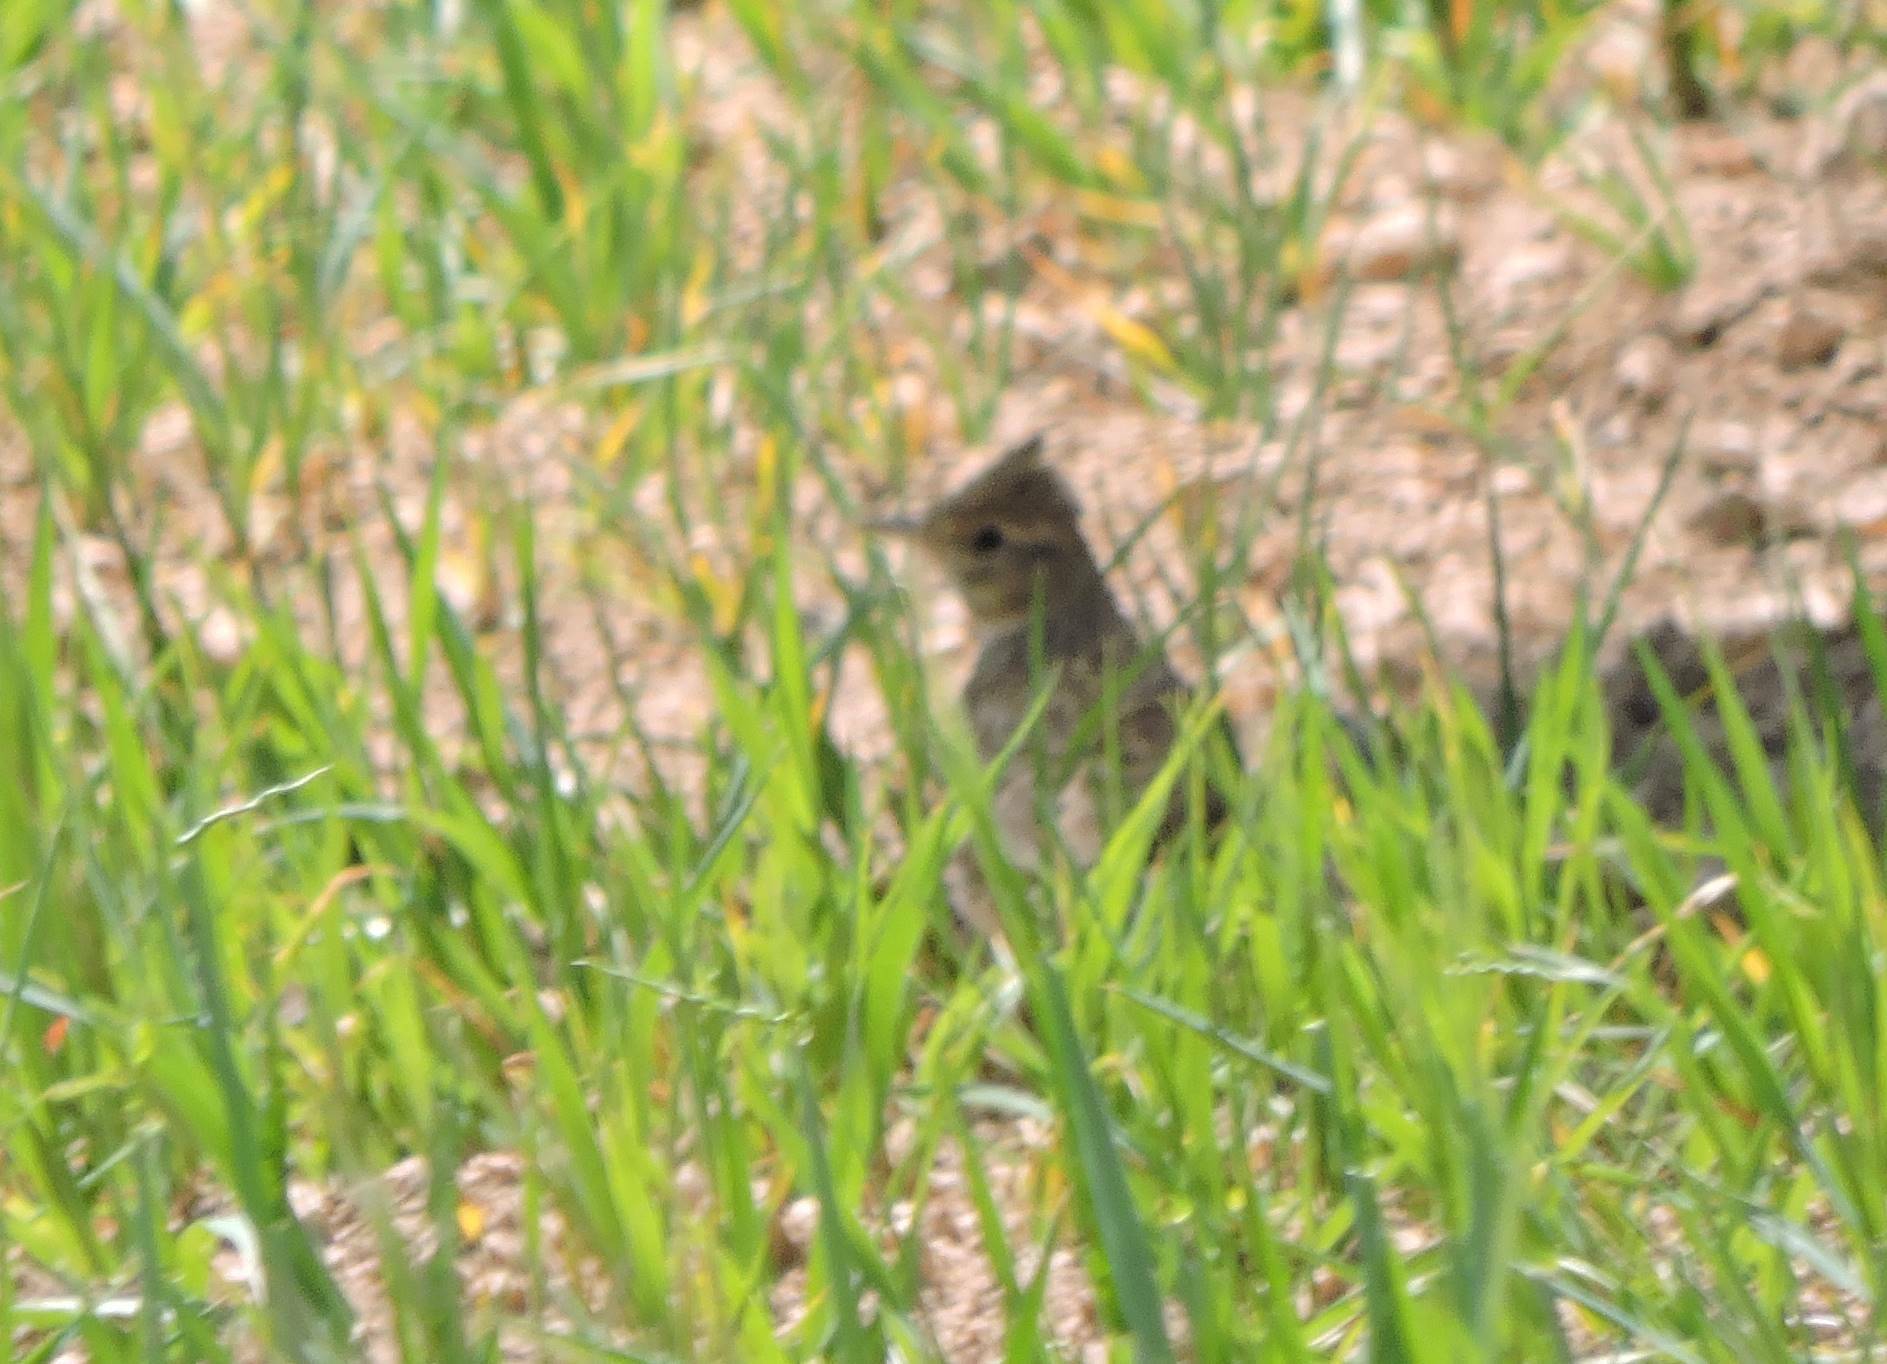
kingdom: Animalia
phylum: Chordata
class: Aves
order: Passeriformes
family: Alaudidae
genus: Galerida
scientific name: Galerida theklae
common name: Thekla lark
